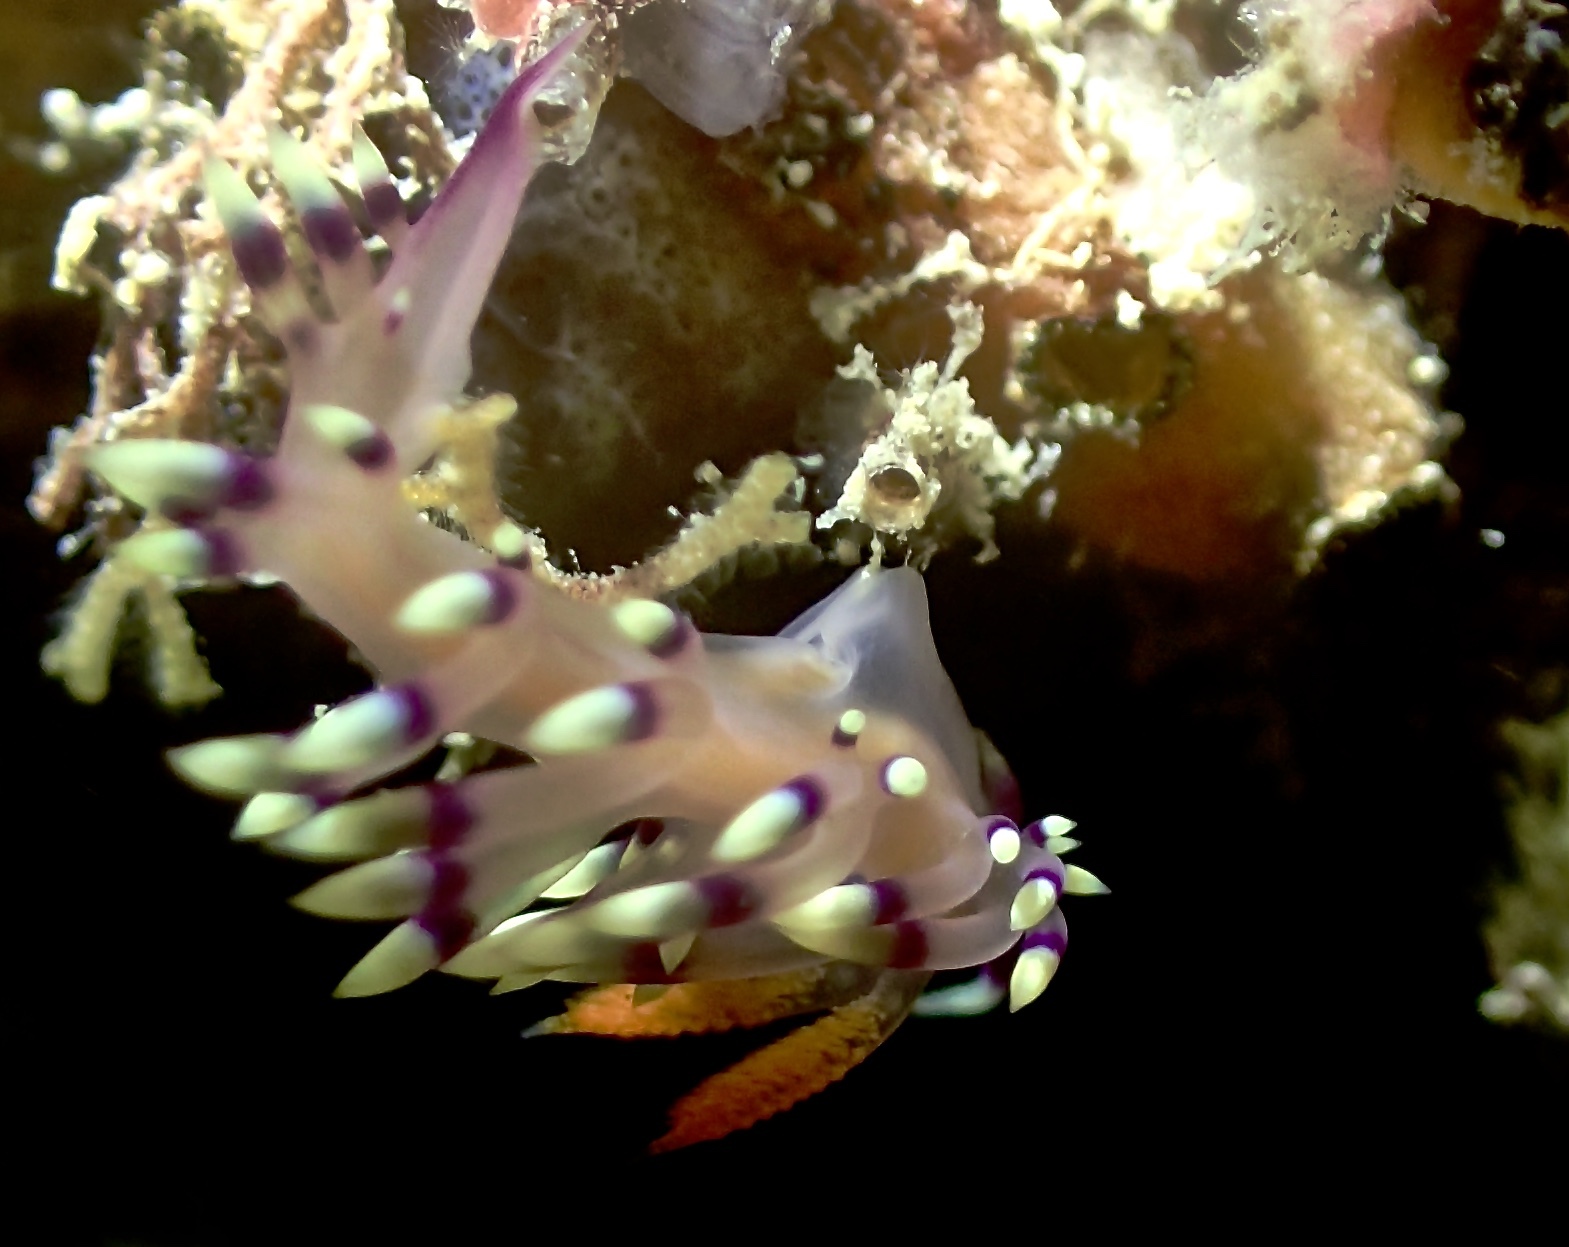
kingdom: Animalia
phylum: Mollusca
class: Gastropoda
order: Nudibranchia
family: Flabellinidae
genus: Coryphellina
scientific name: Coryphellina exoptata
